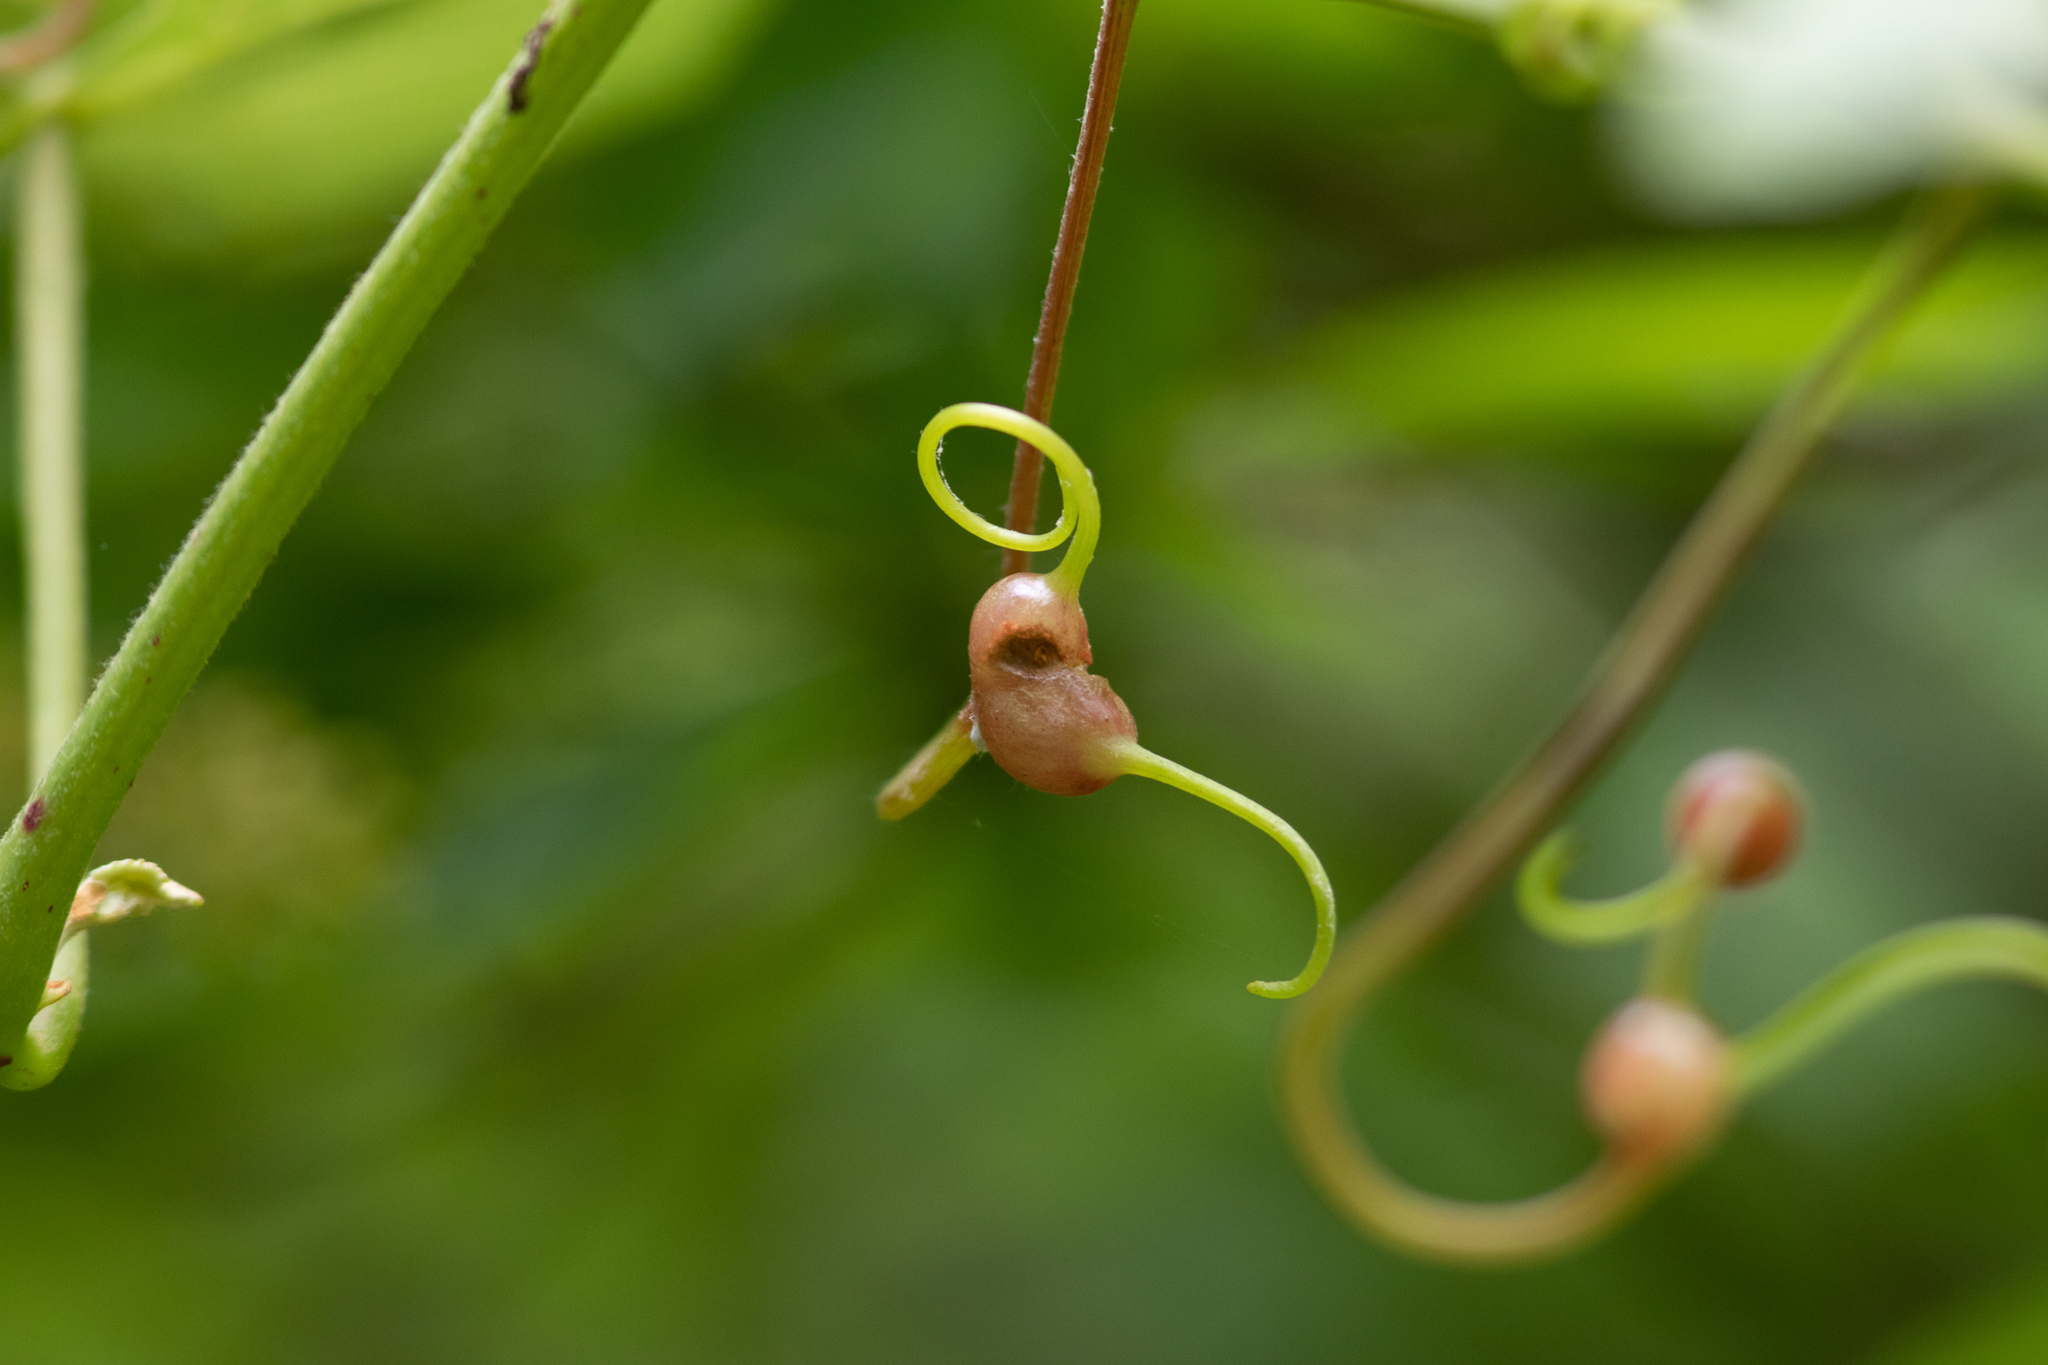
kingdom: Animalia
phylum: Arthropoda
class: Insecta
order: Diptera
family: Cecidomyiidae
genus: Vitisiella
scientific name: Vitisiella brevicauda
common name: Grape tumid gallmaker midge
